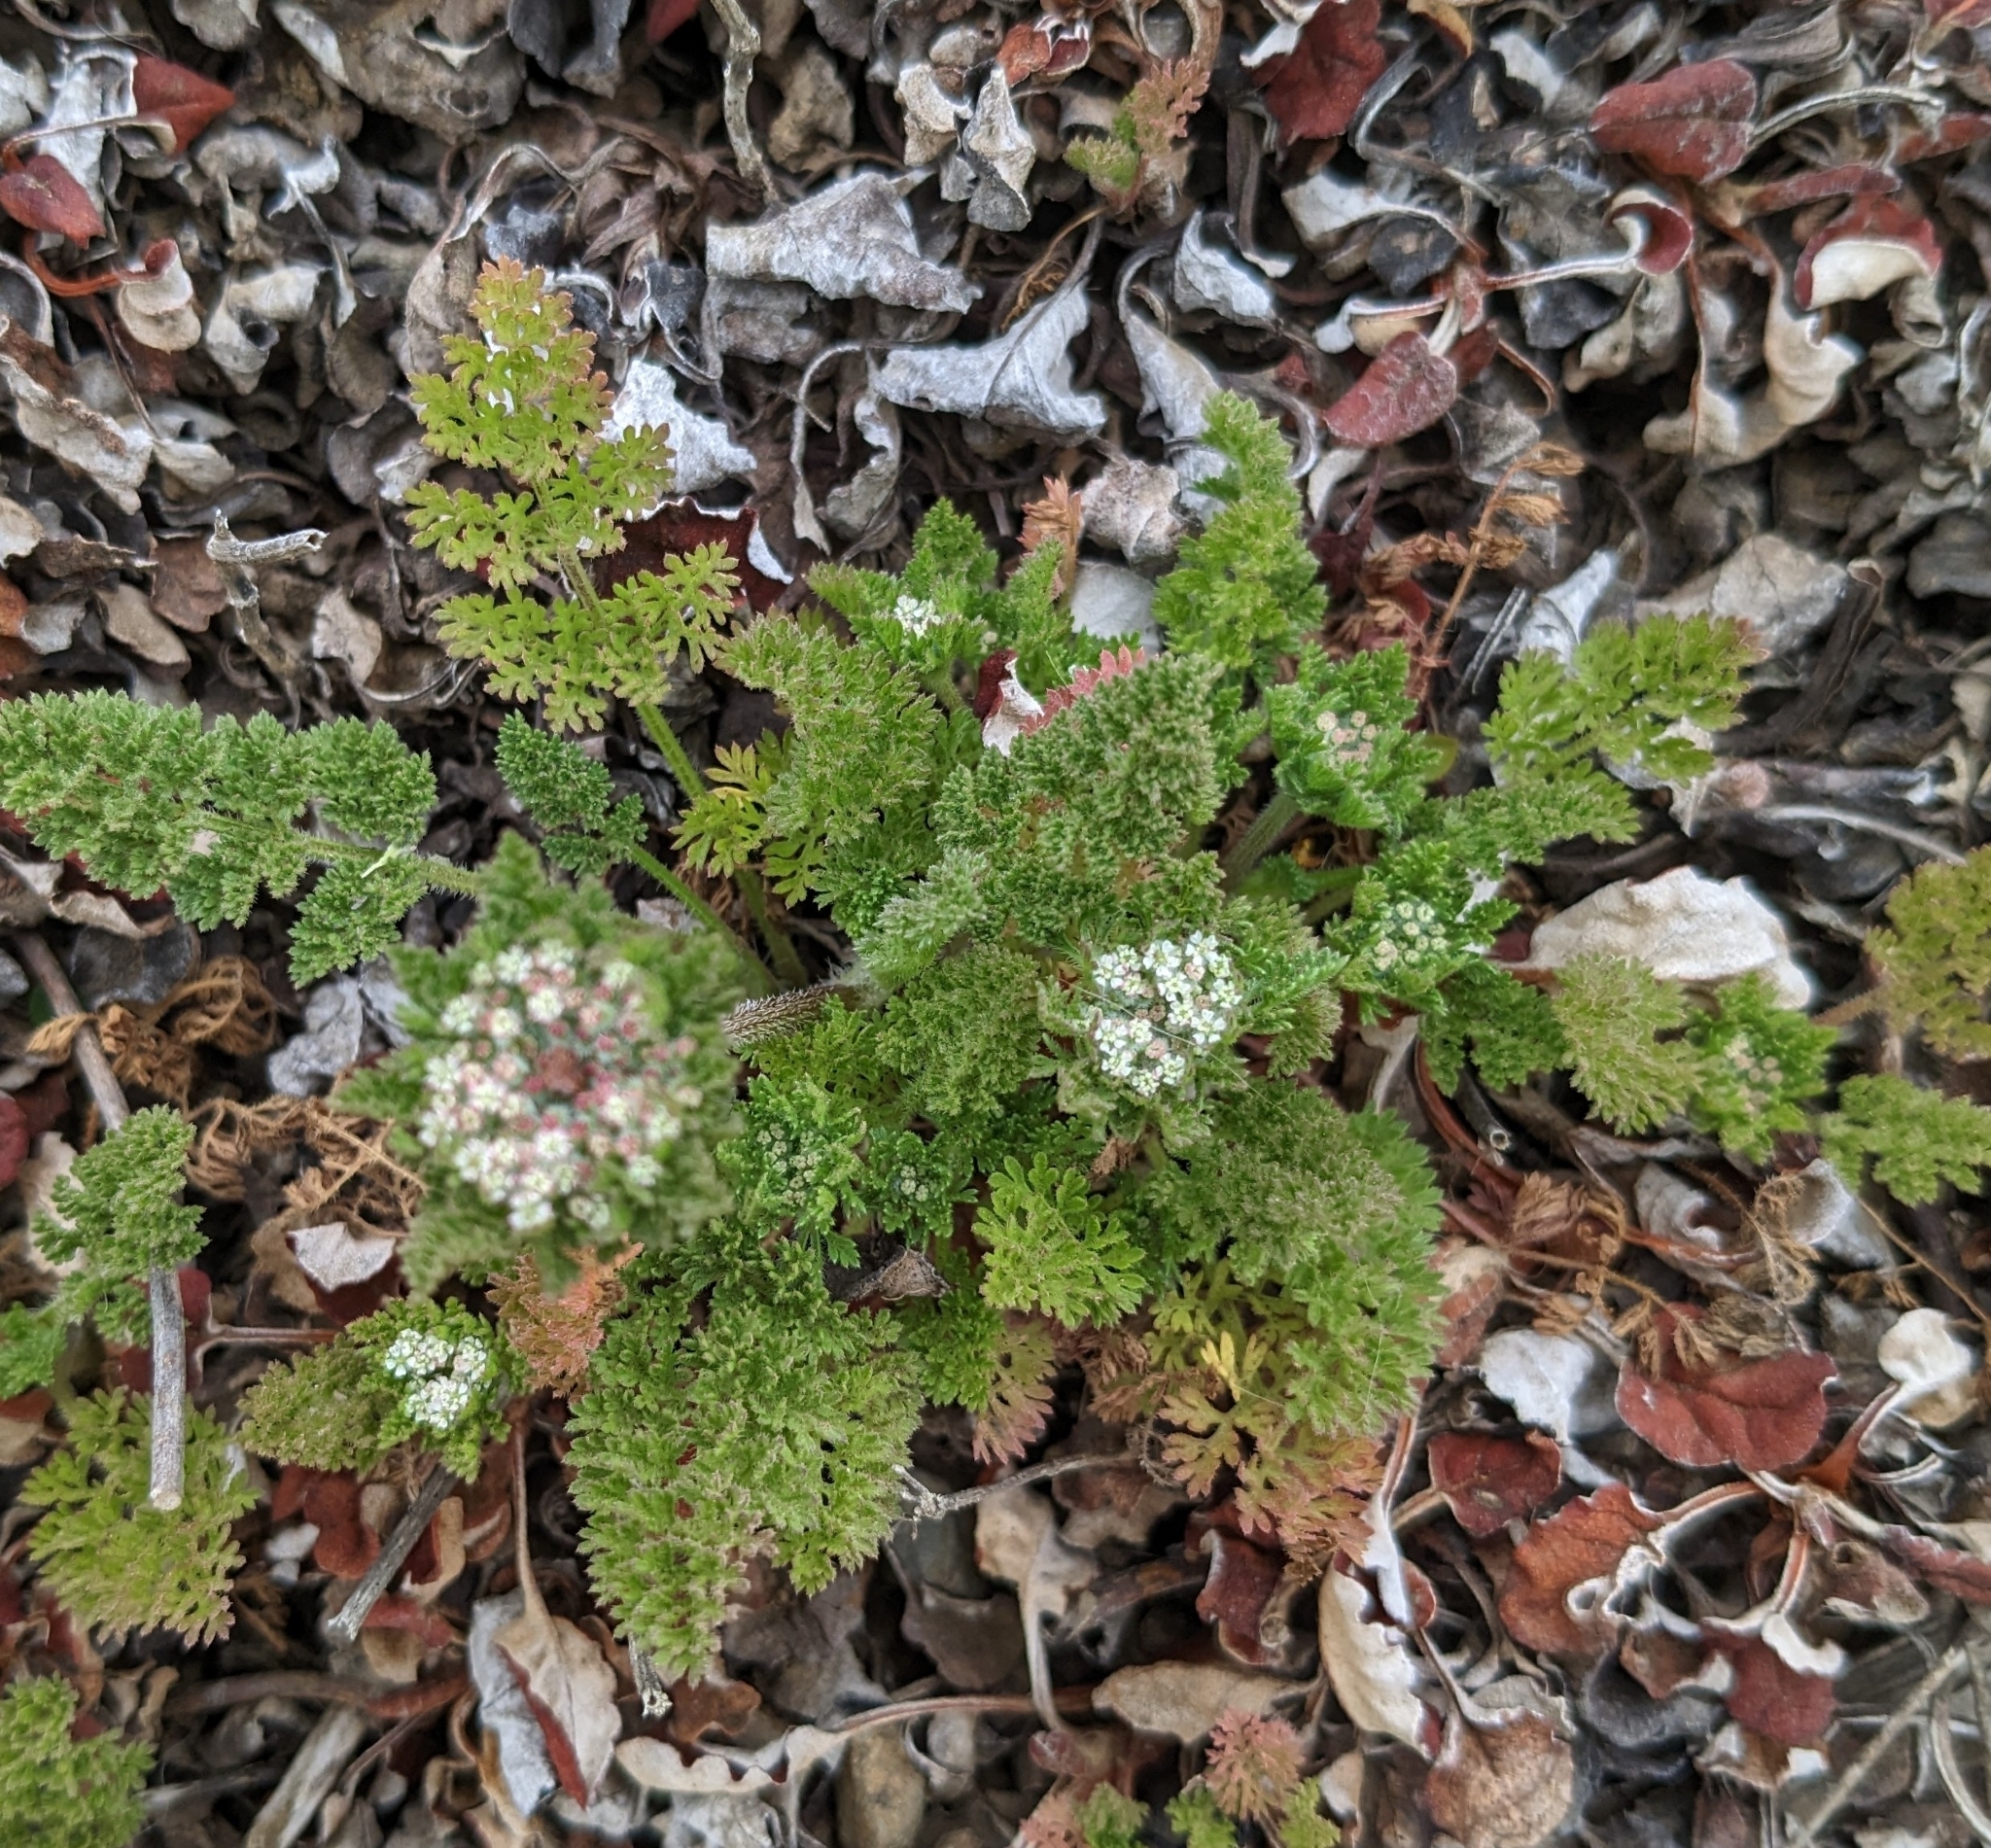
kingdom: Plantae
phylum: Tracheophyta
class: Magnoliopsida
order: Apiales
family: Apiaceae
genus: Daucus
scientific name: Daucus pusillus
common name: Southwest wild carrot
